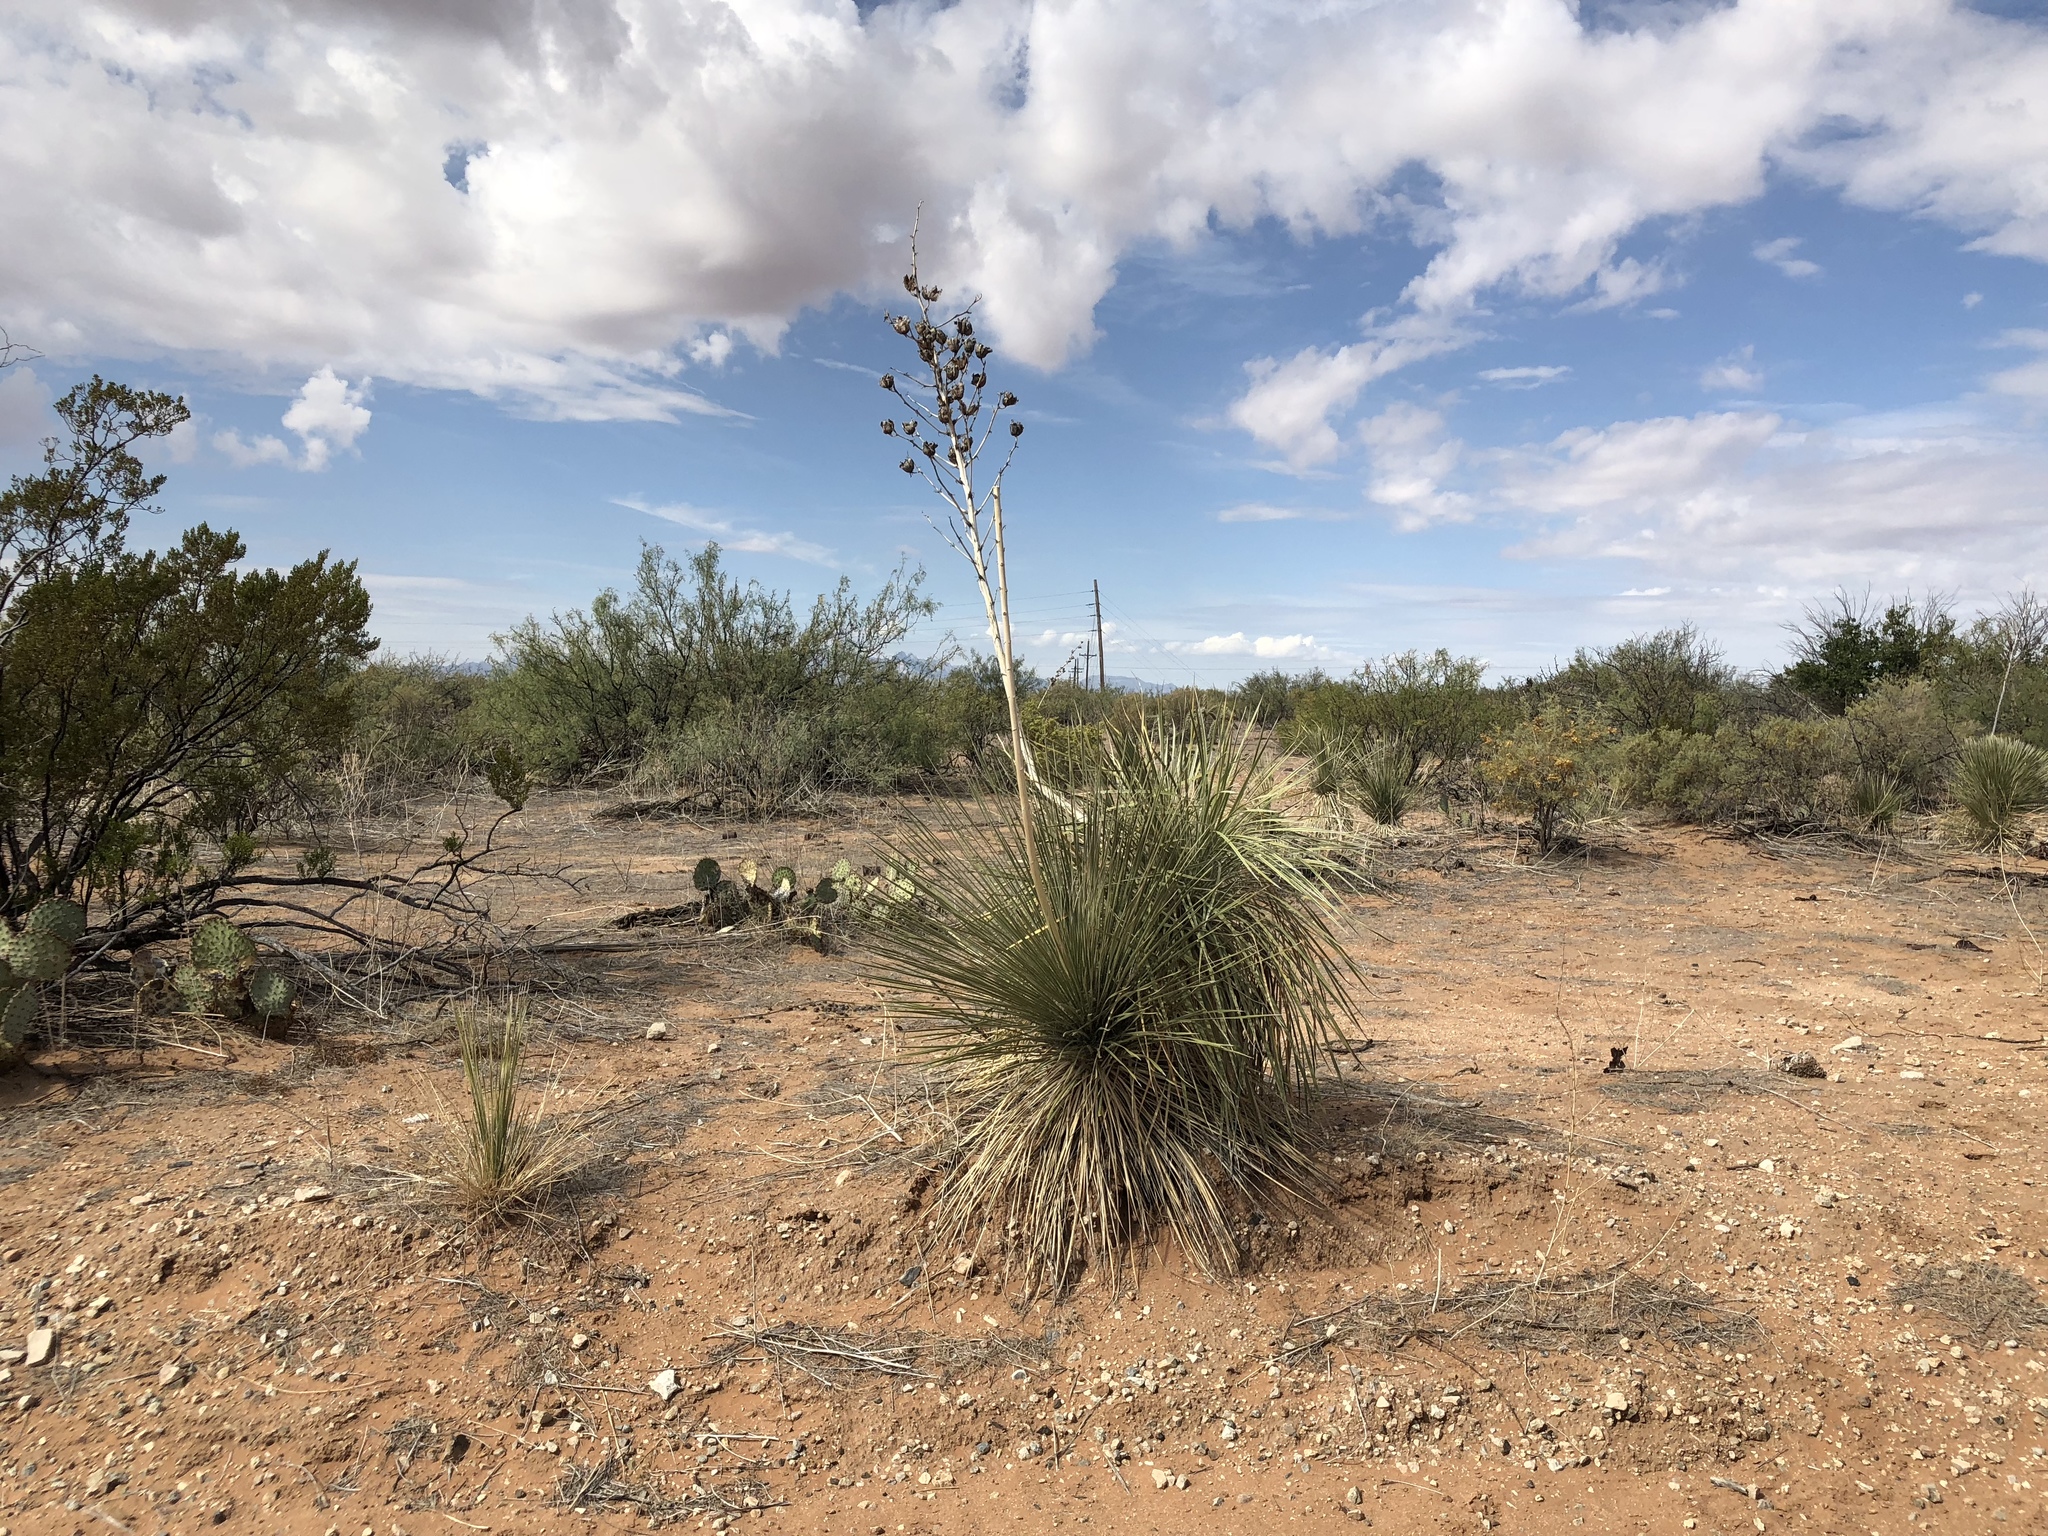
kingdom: Plantae
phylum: Tracheophyta
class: Liliopsida
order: Asparagales
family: Asparagaceae
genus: Yucca
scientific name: Yucca elata
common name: Palmella
